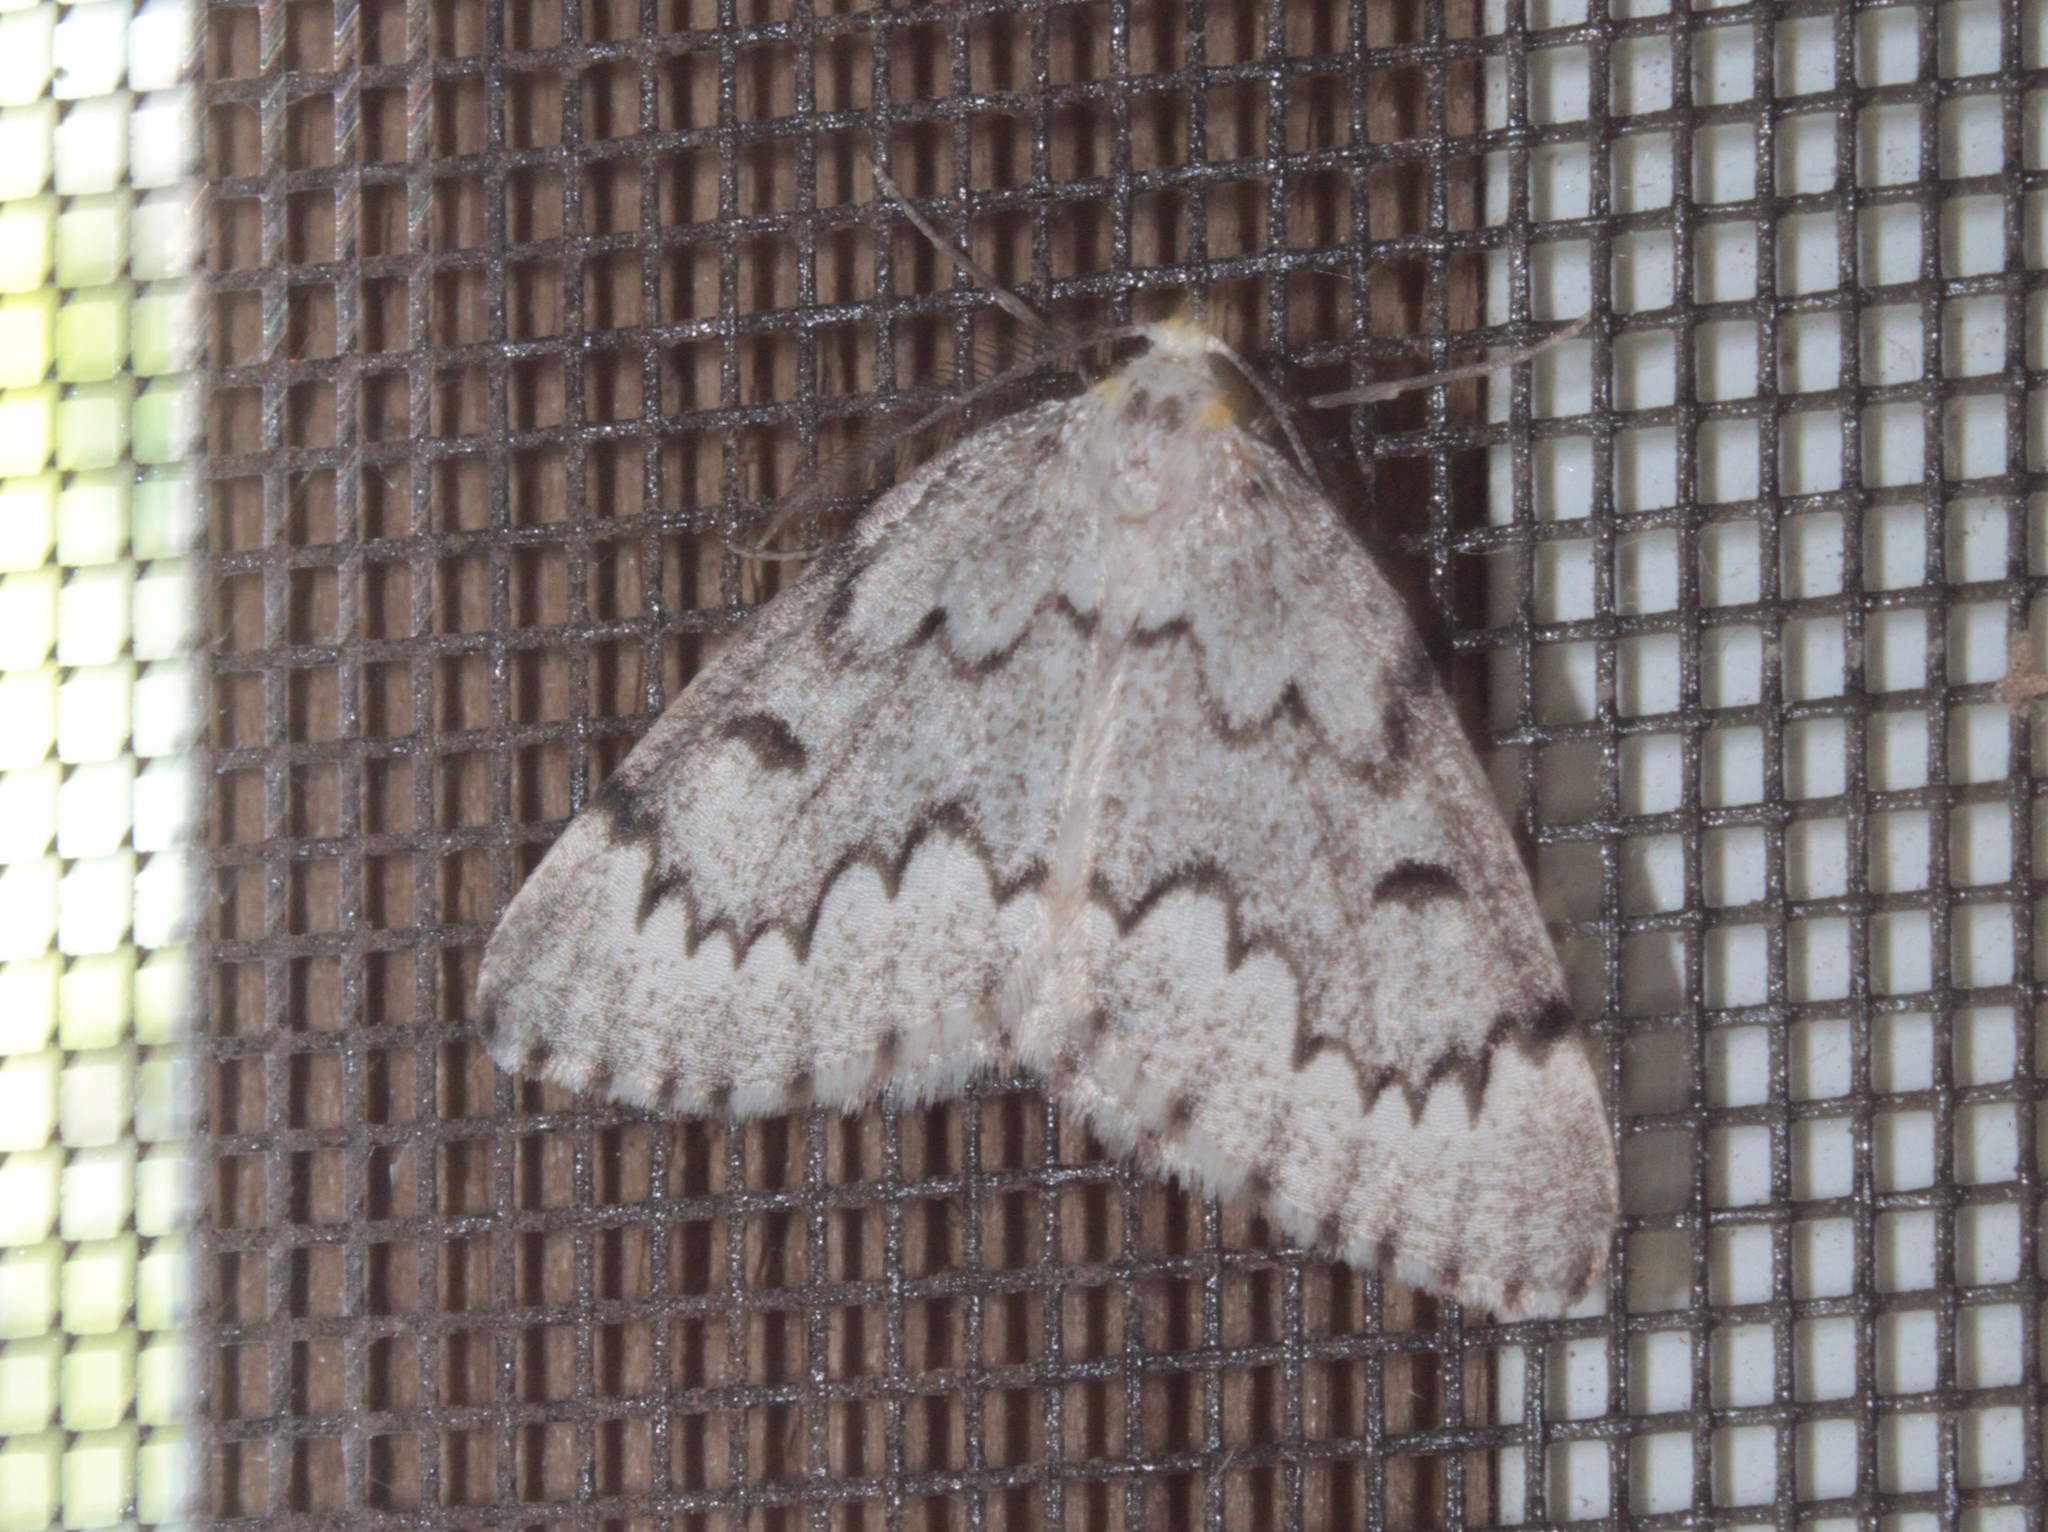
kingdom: Animalia
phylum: Arthropoda
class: Insecta
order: Lepidoptera
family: Geometridae
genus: Nepytia
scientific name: Nepytia canosaria
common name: False hemlock looper
